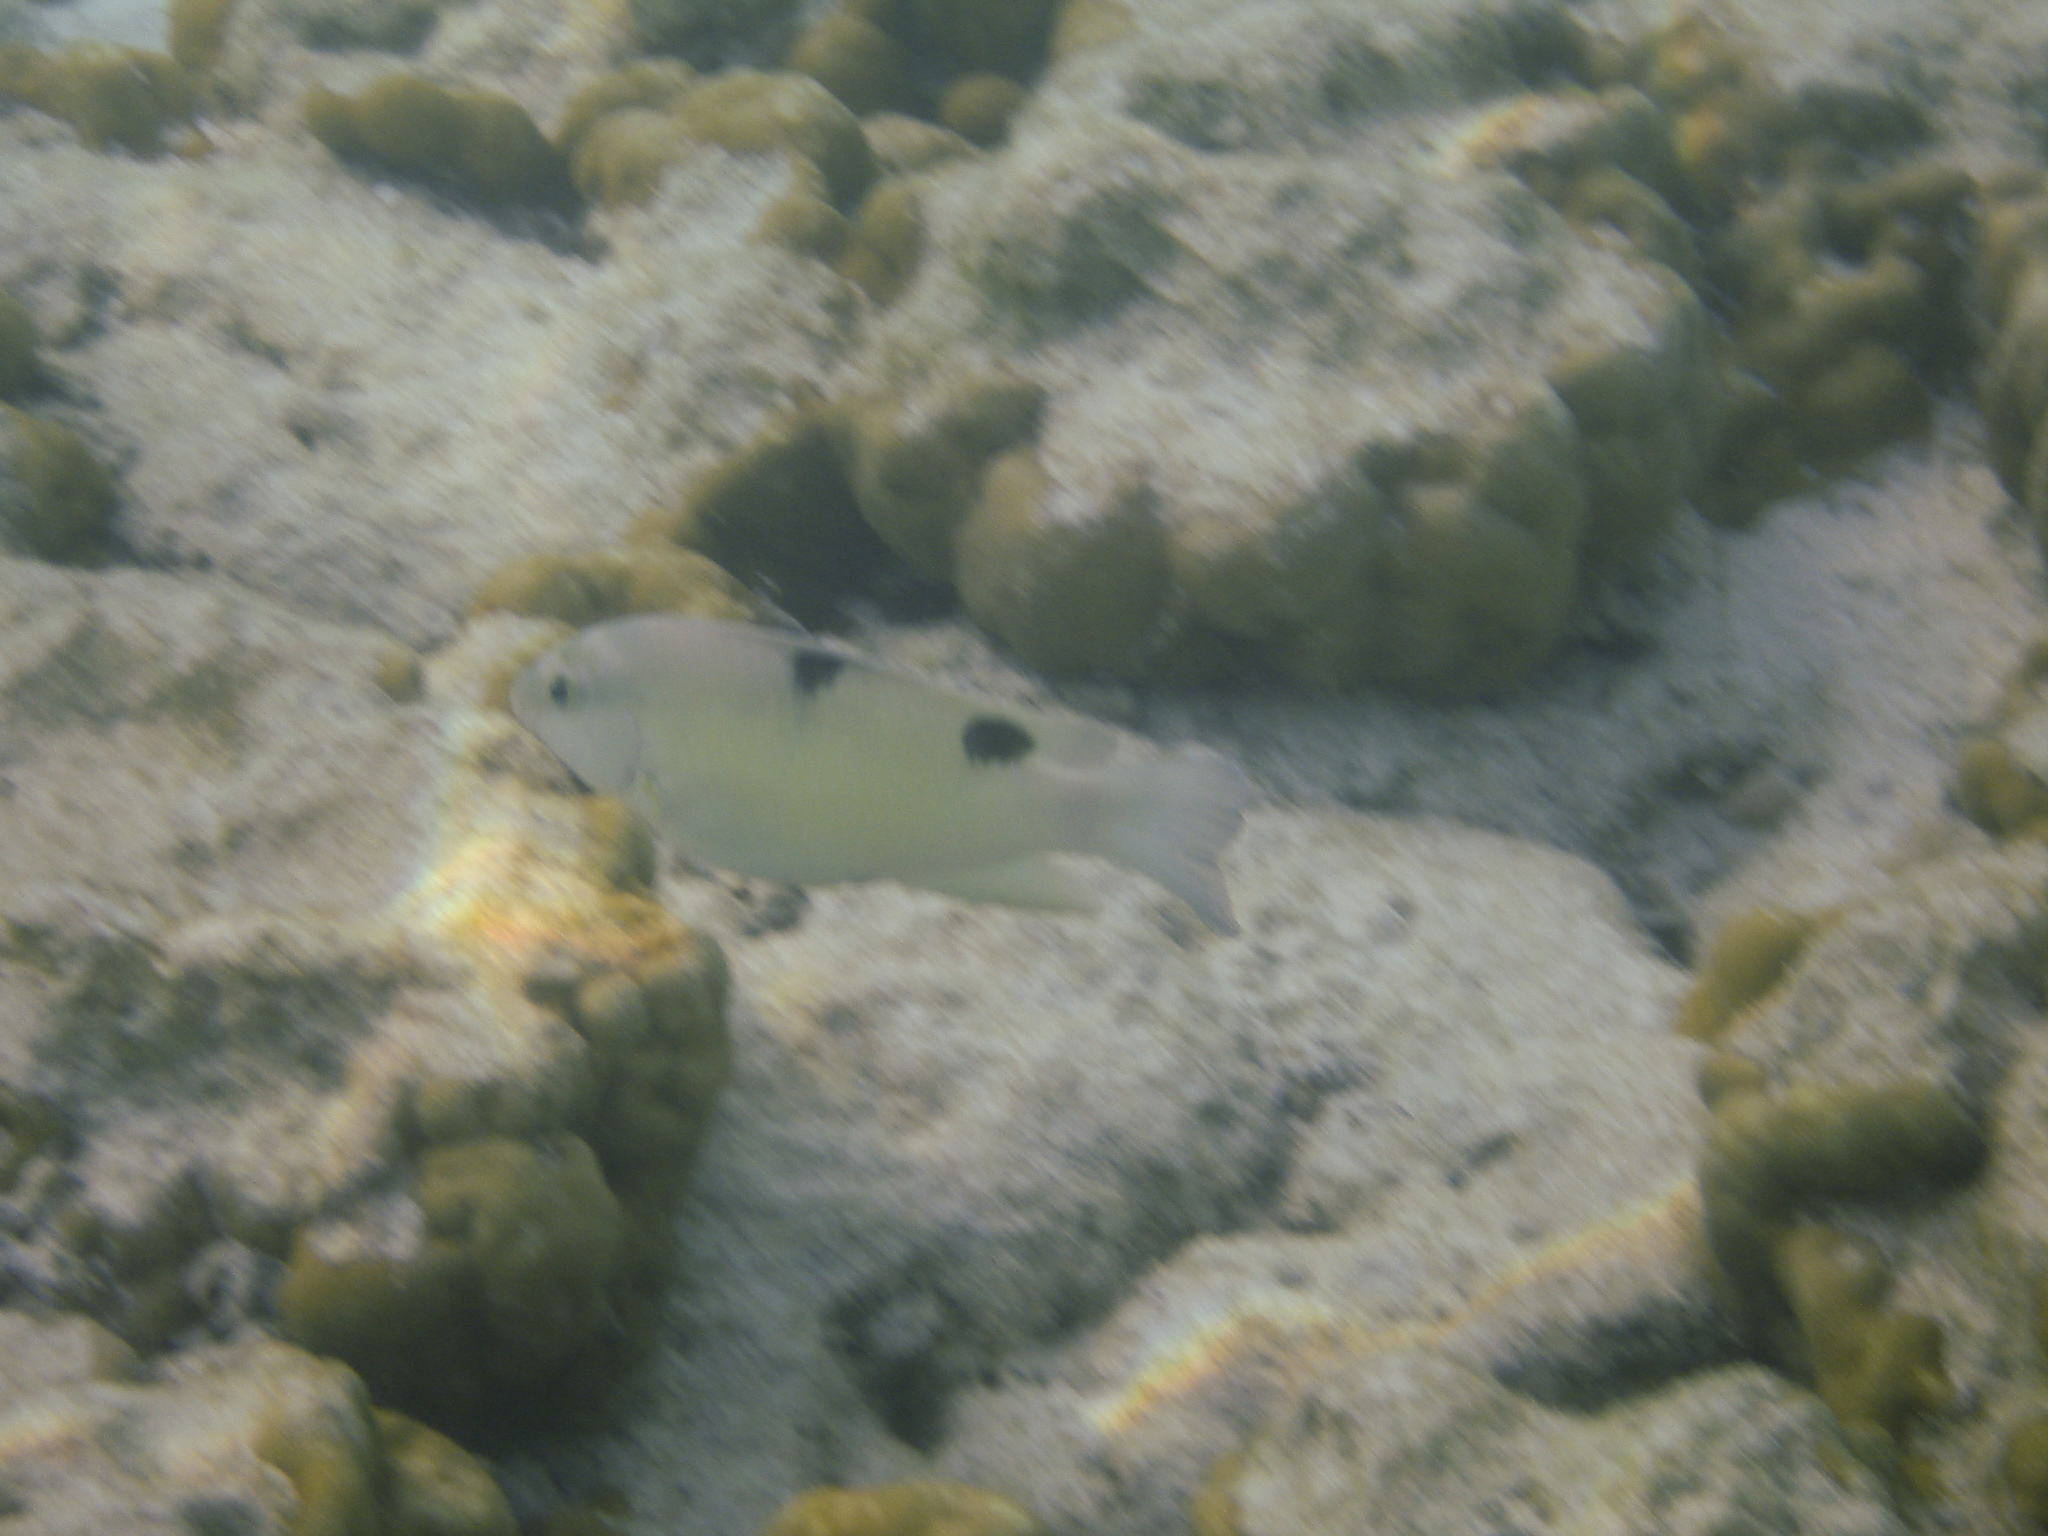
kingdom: Animalia
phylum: Chordata
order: Perciformes
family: Pomacentridae
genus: Dischistodus
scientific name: Dischistodus perspicillatus
